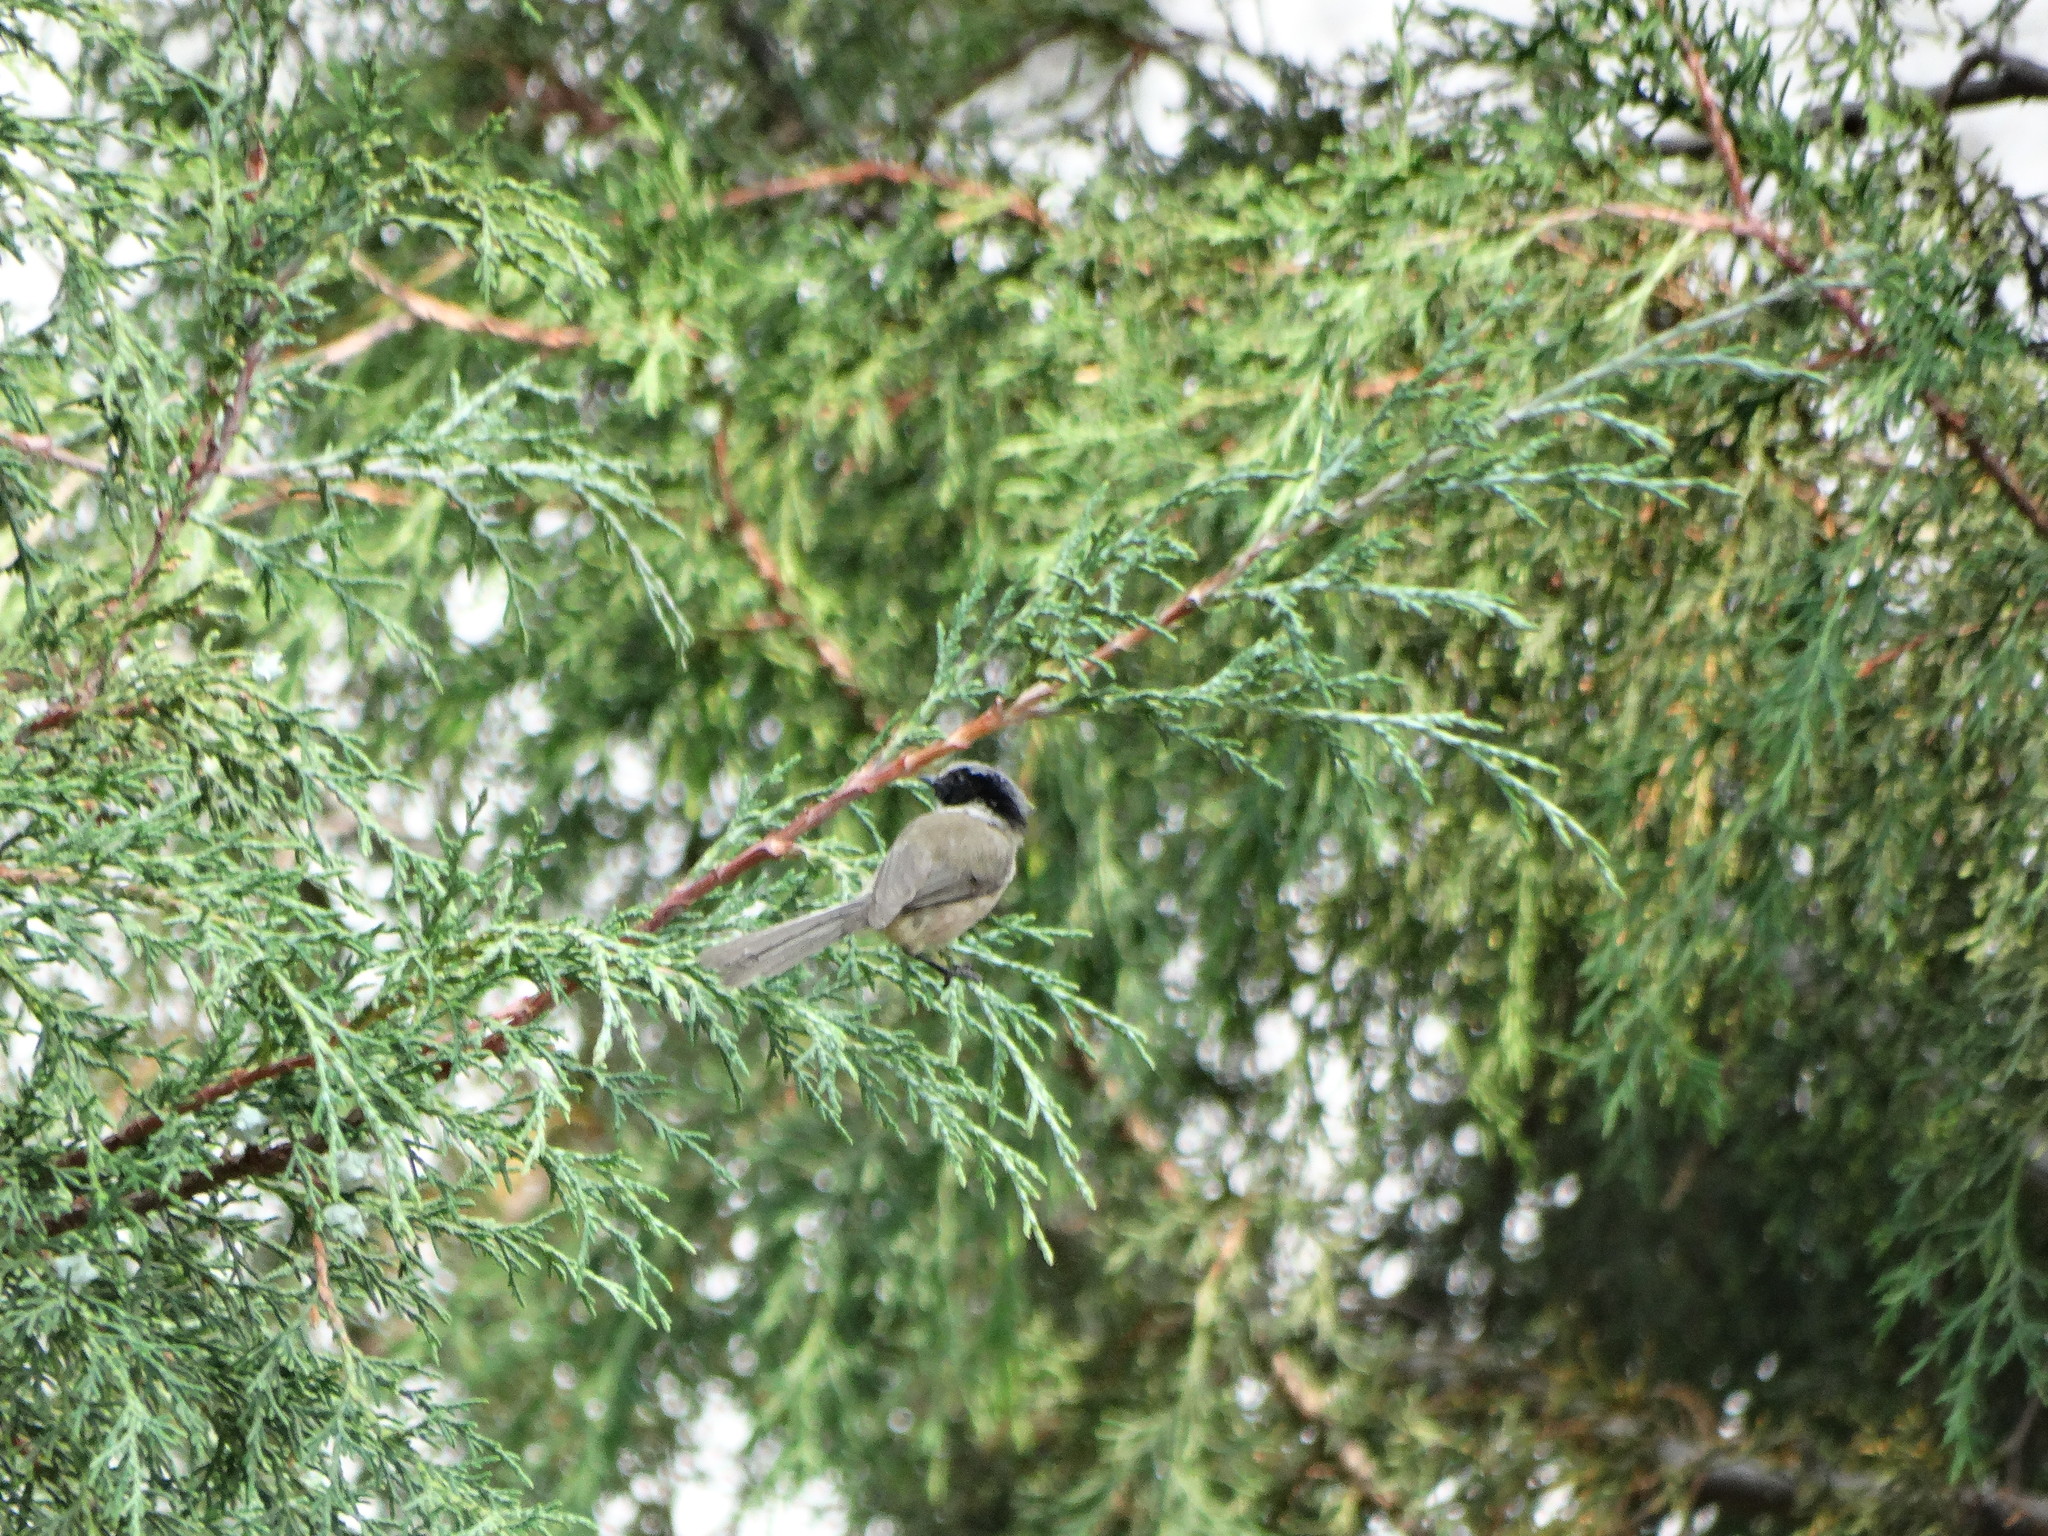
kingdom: Animalia
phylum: Chordata
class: Aves
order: Passeriformes
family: Aegithalidae
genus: Psaltriparus
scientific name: Psaltriparus minimus
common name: American bushtit
